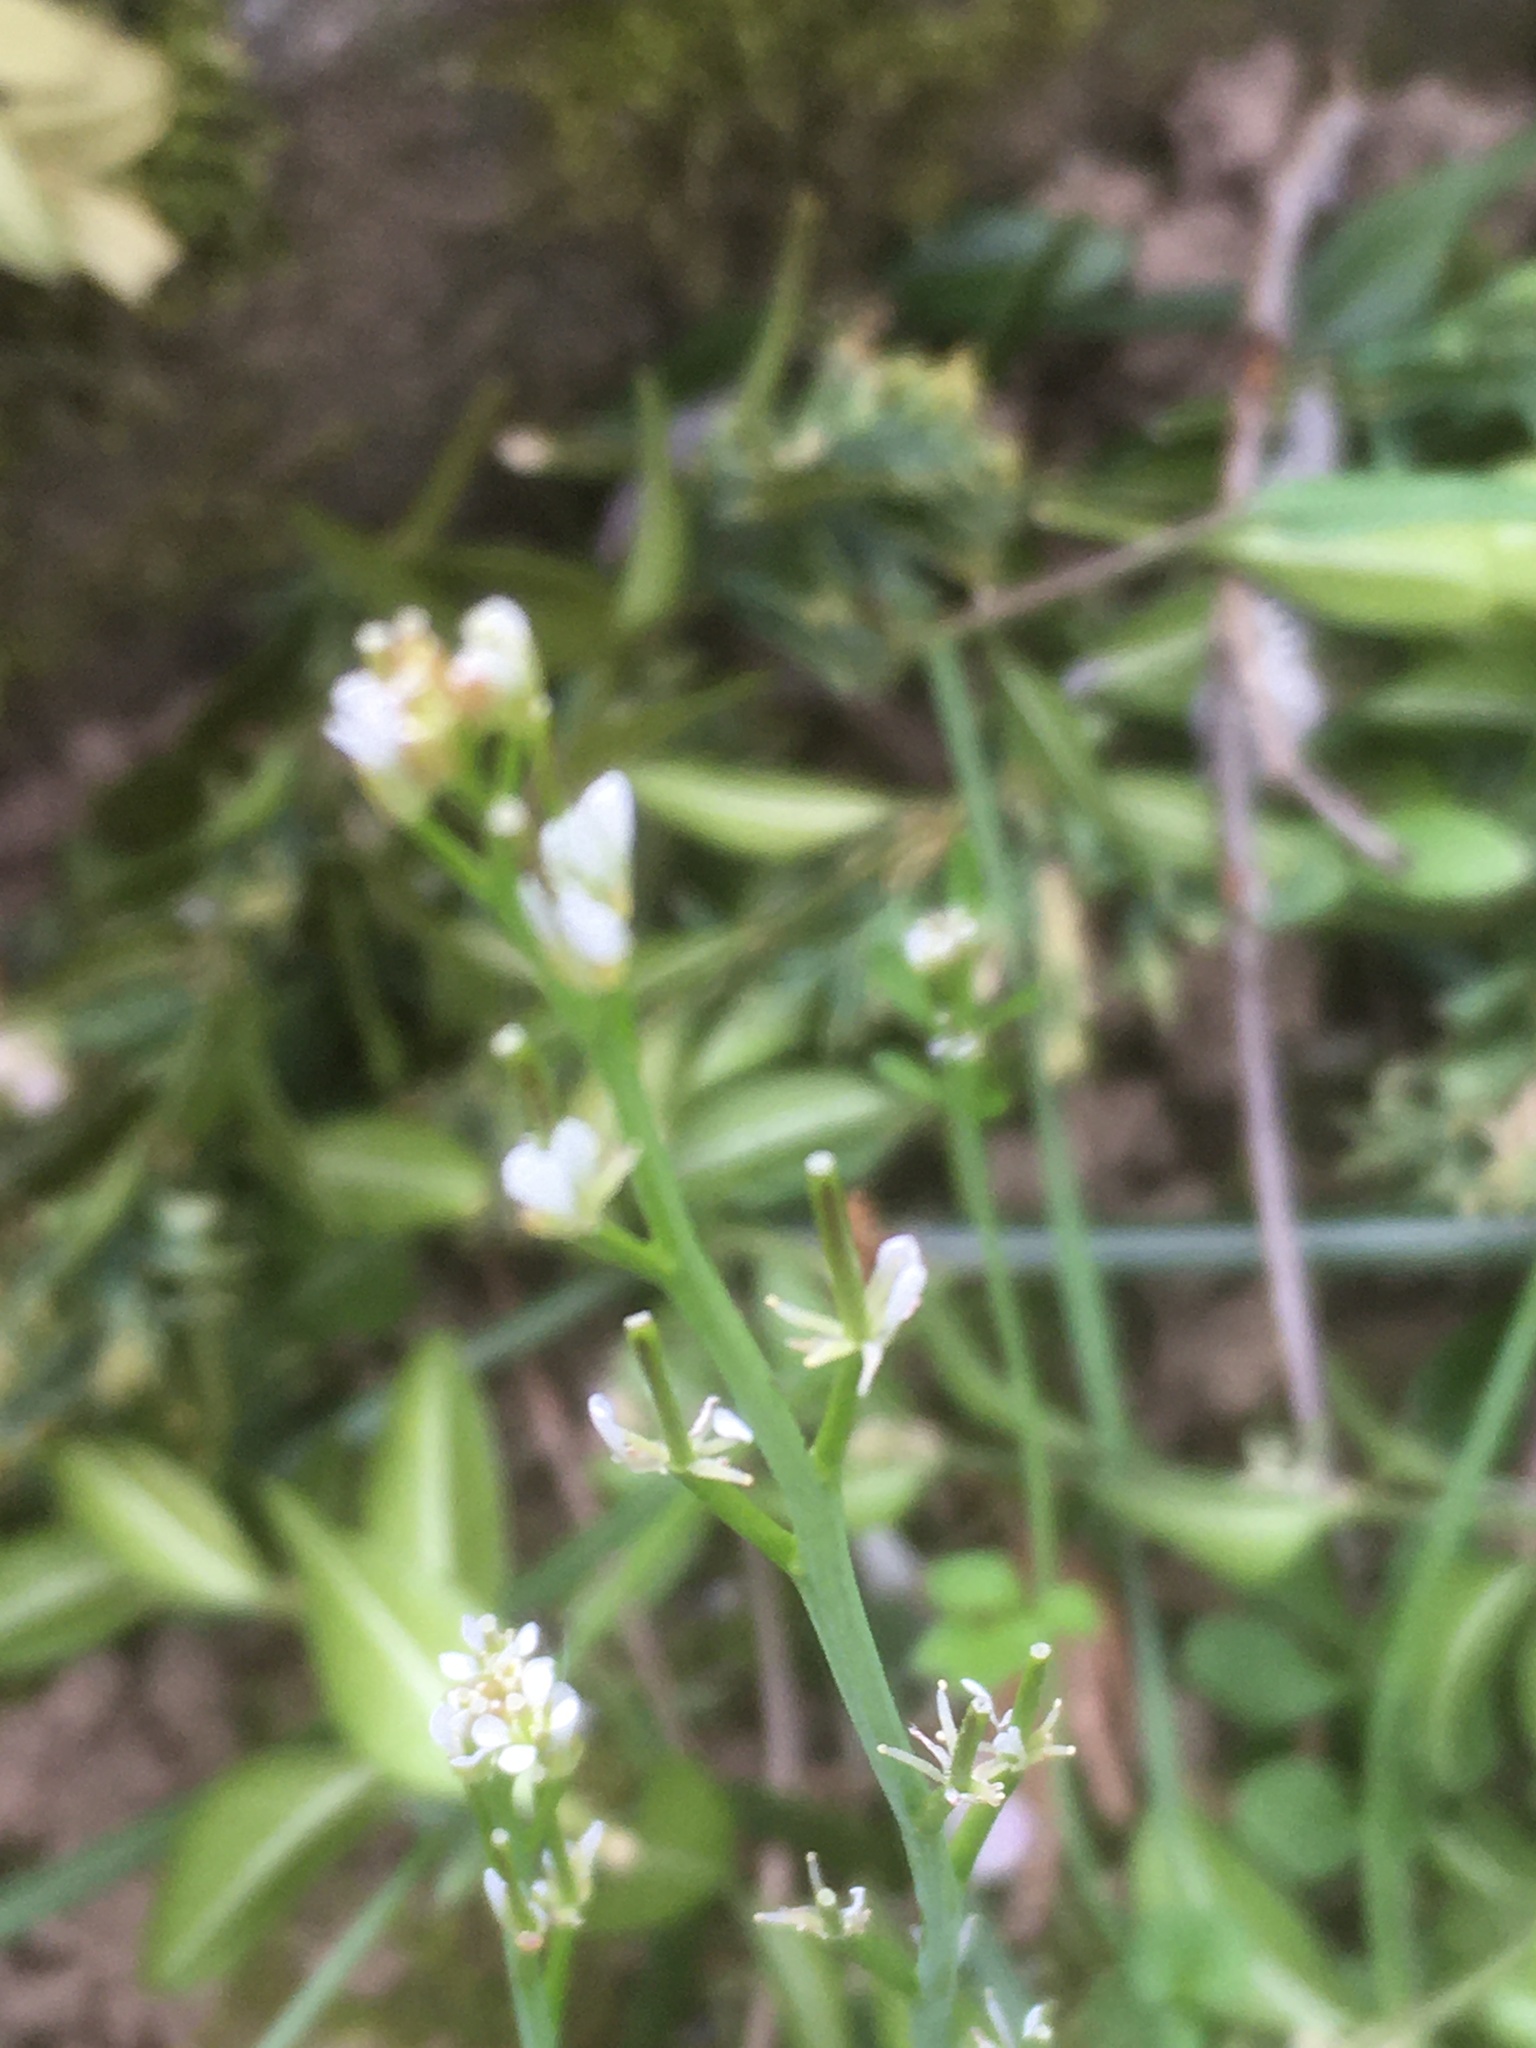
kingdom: Plantae
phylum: Tracheophyta
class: Magnoliopsida
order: Brassicales
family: Brassicaceae
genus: Cardamine
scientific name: Cardamine hirsuta
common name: Hairy bittercress
